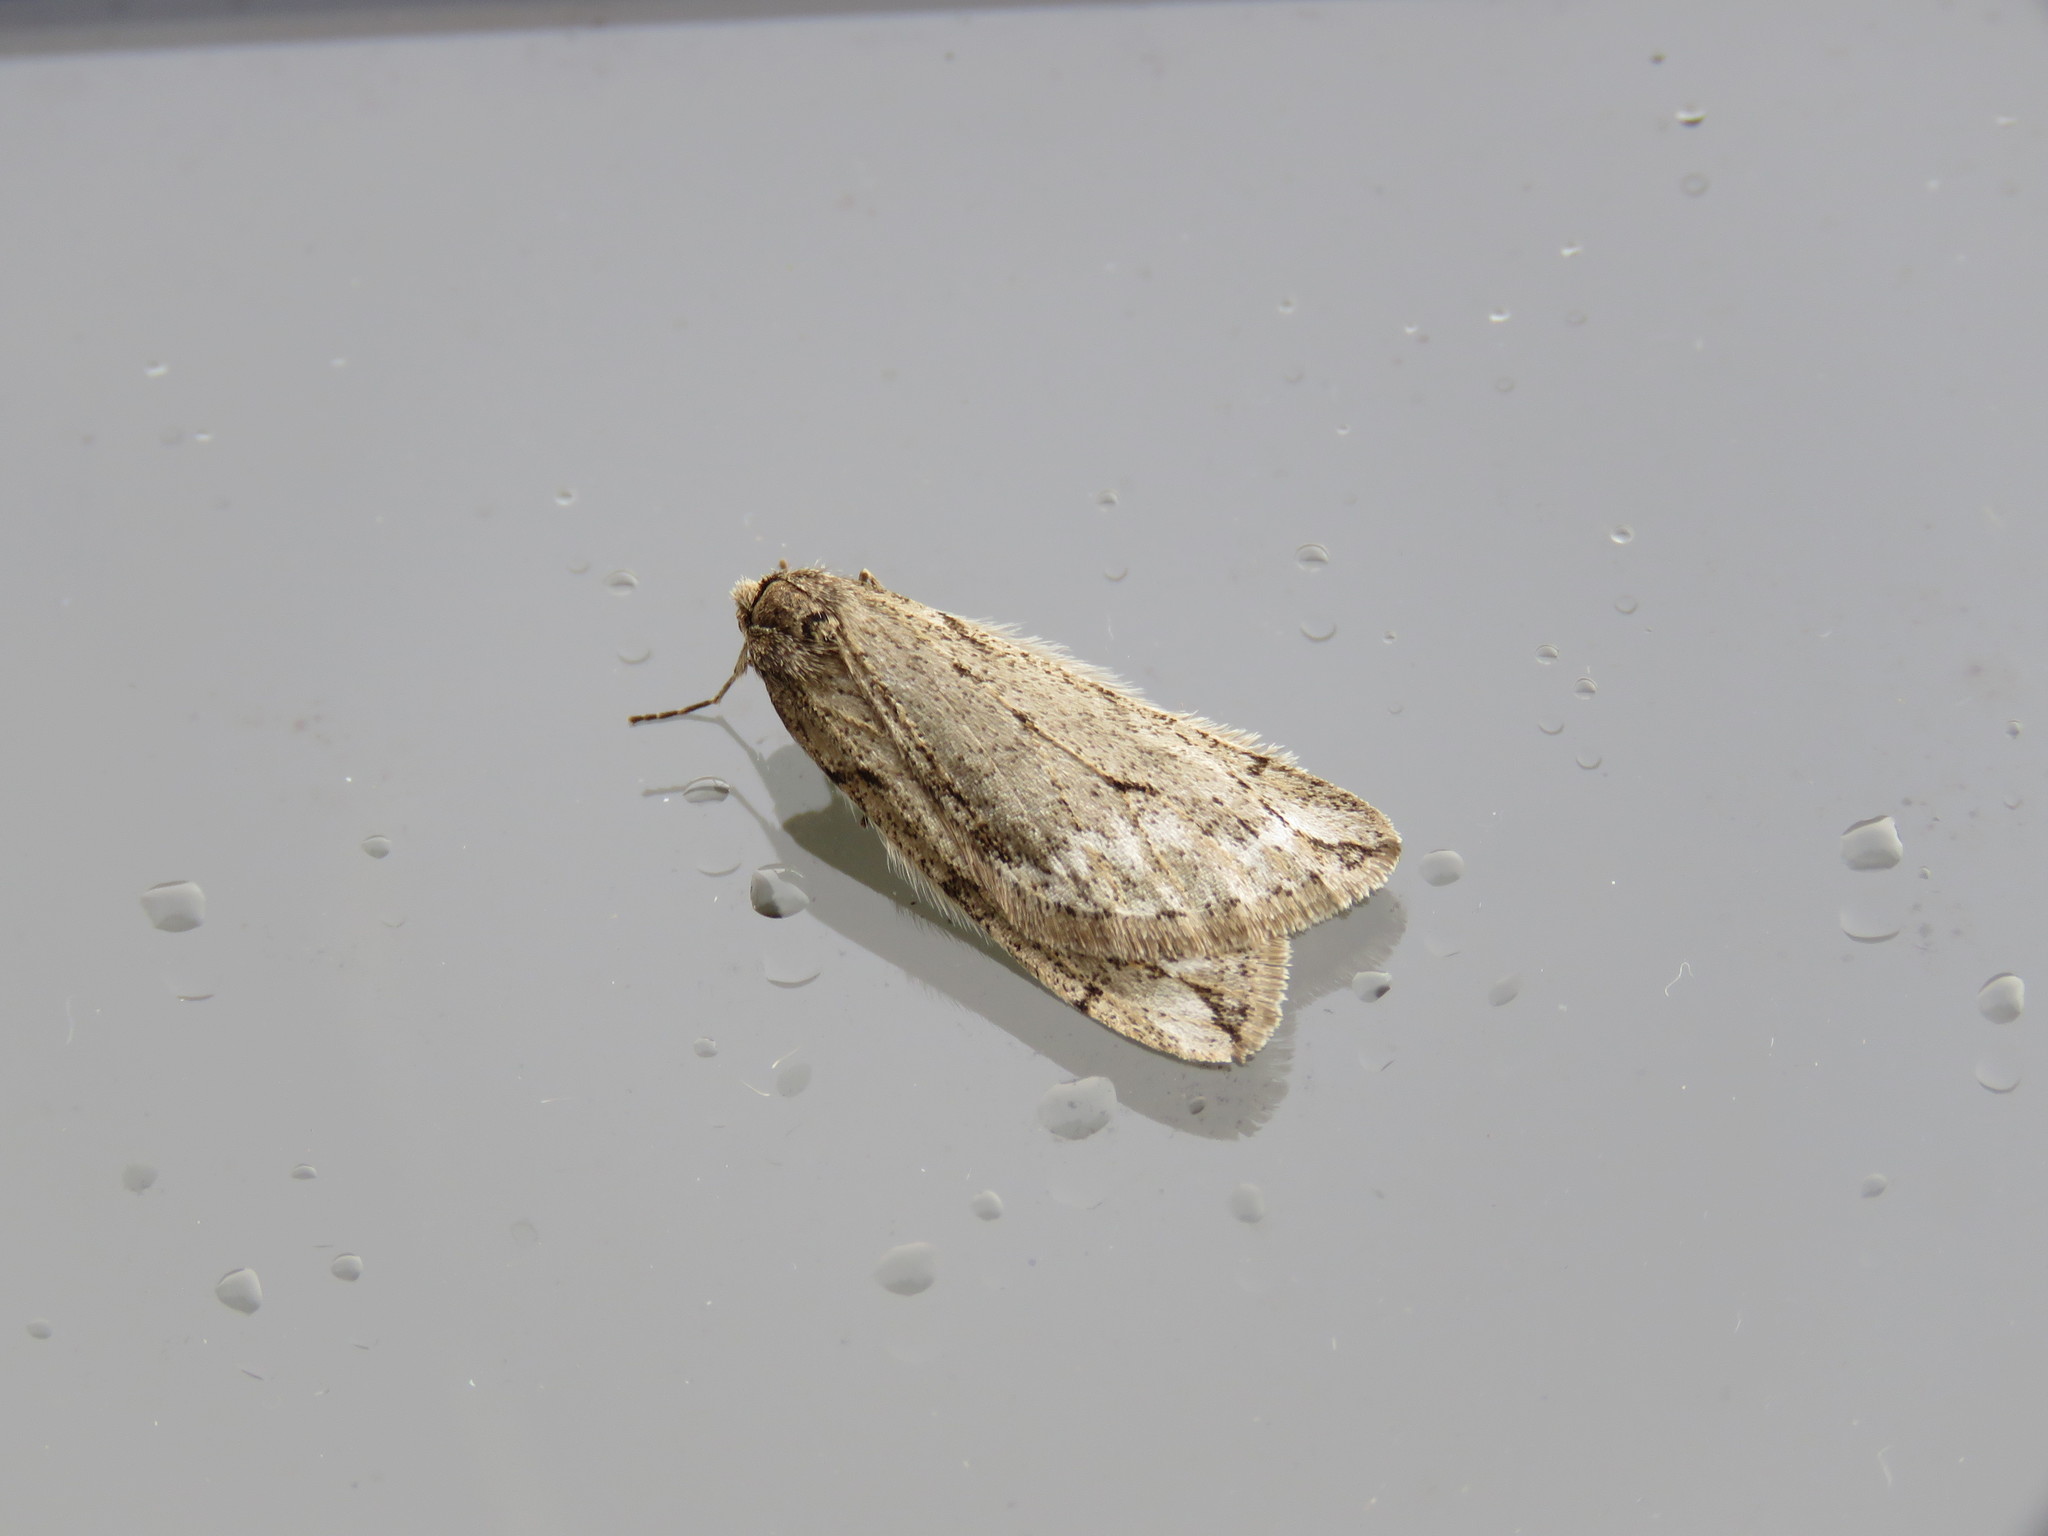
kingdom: Animalia
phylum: Arthropoda
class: Insecta
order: Lepidoptera
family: Geometridae
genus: Paleacrita
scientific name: Paleacrita vernata
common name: Spring cankerworm
